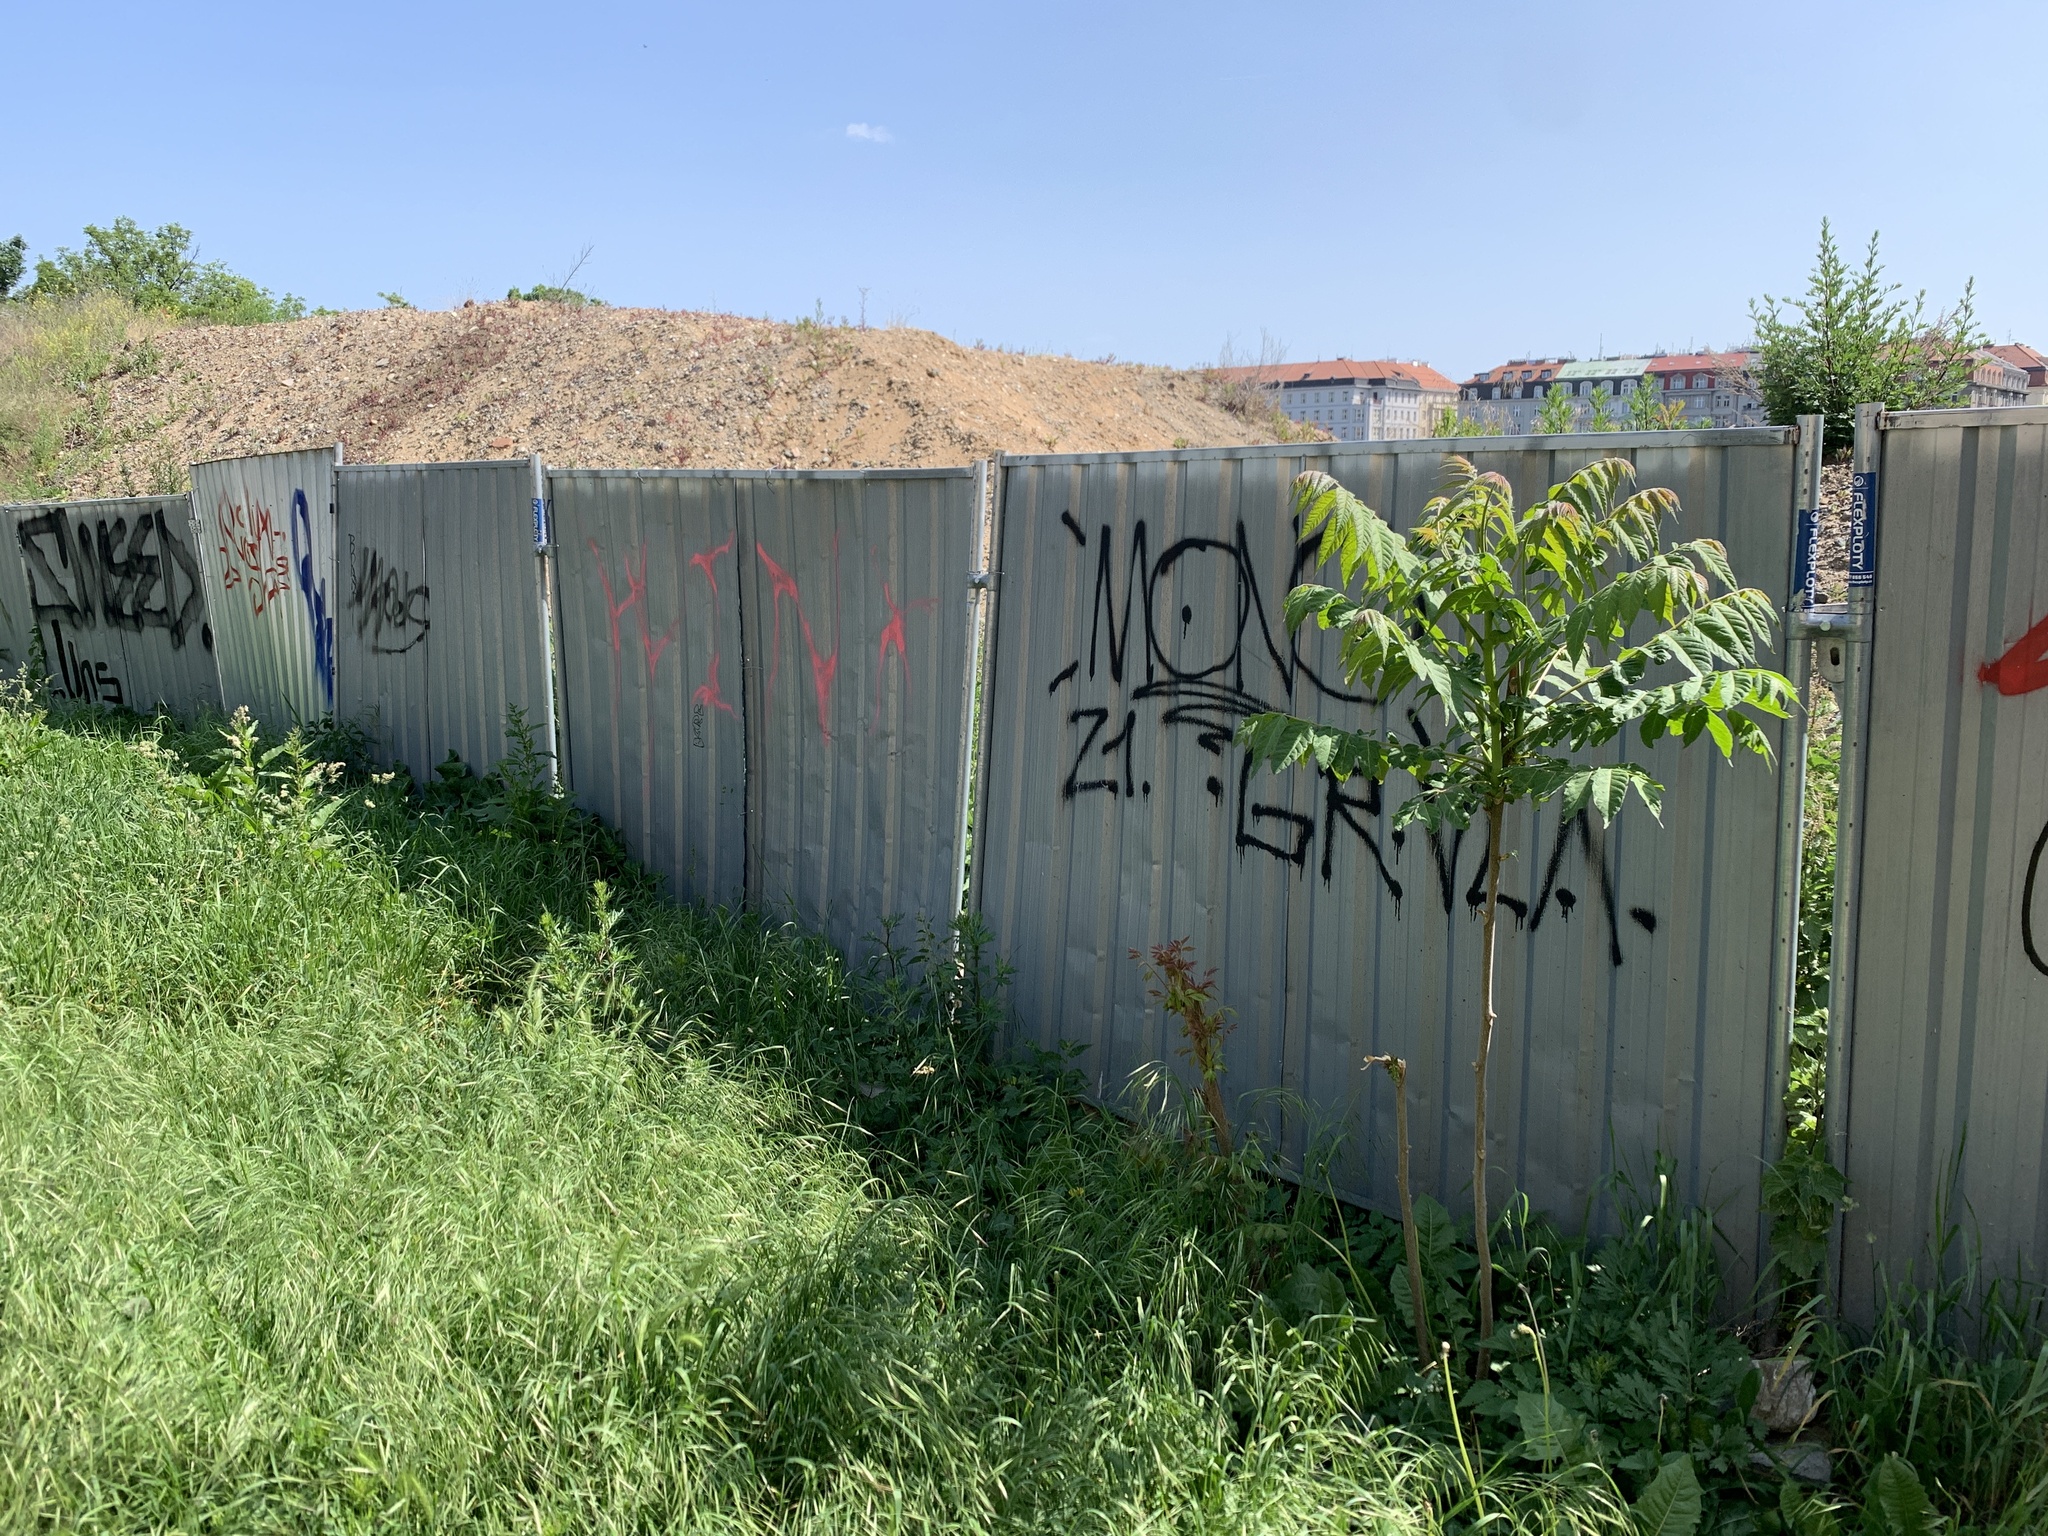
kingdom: Plantae
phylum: Tracheophyta
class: Magnoliopsida
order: Sapindales
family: Simaroubaceae
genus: Ailanthus
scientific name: Ailanthus altissima
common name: Tree-of-heaven
